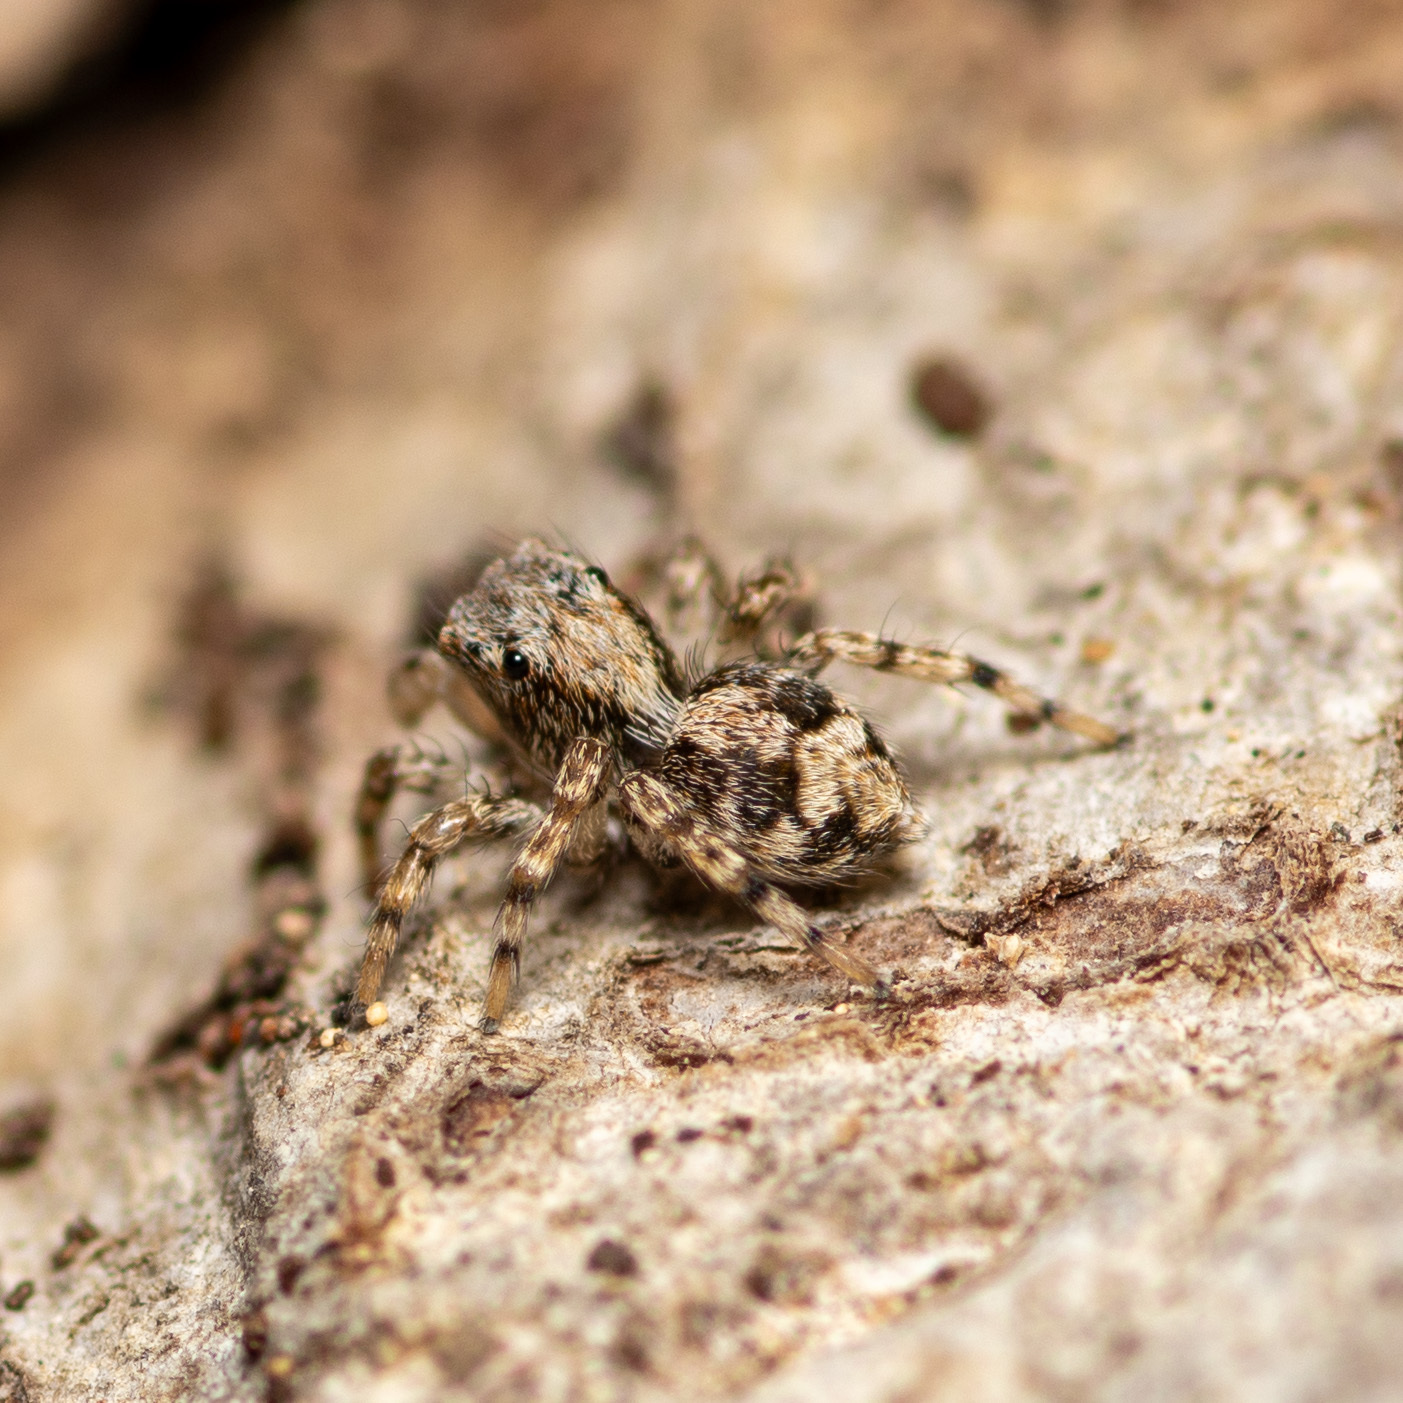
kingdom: Animalia
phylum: Arthropoda
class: Arachnida
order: Araneae
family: Salticidae
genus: Naphrys
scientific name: Naphrys pulex
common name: Flea jumping spider
